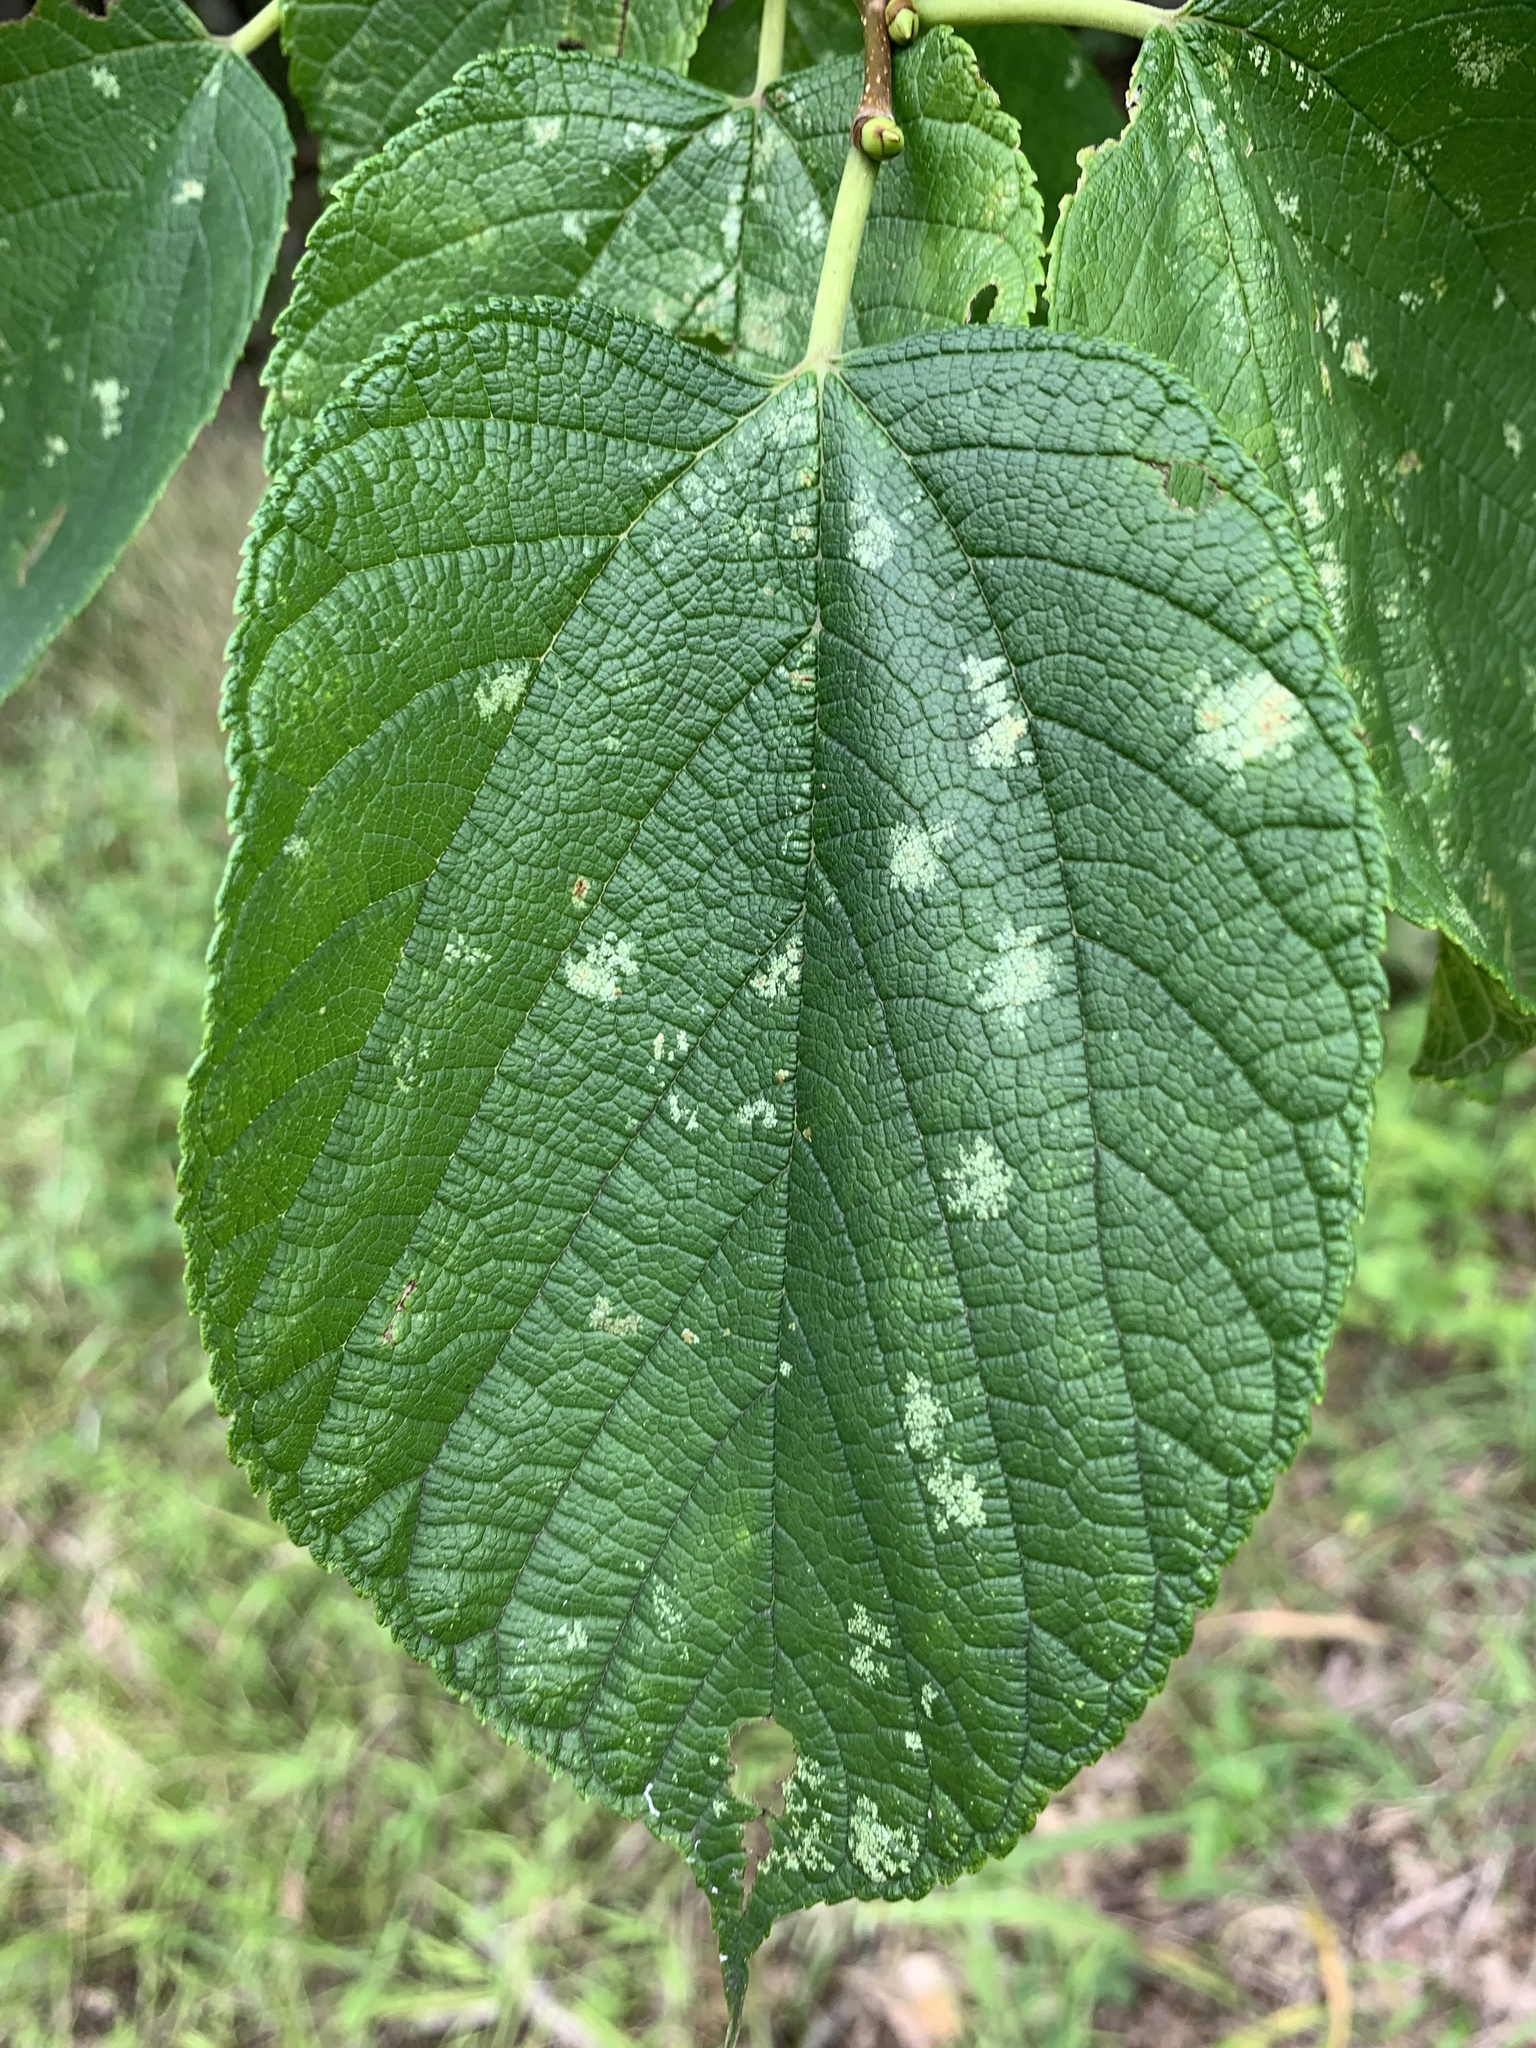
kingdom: Plantae
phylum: Tracheophyta
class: Magnoliopsida
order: Rosales
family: Moraceae
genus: Morus
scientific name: Morus rubra
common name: Red mulberry
